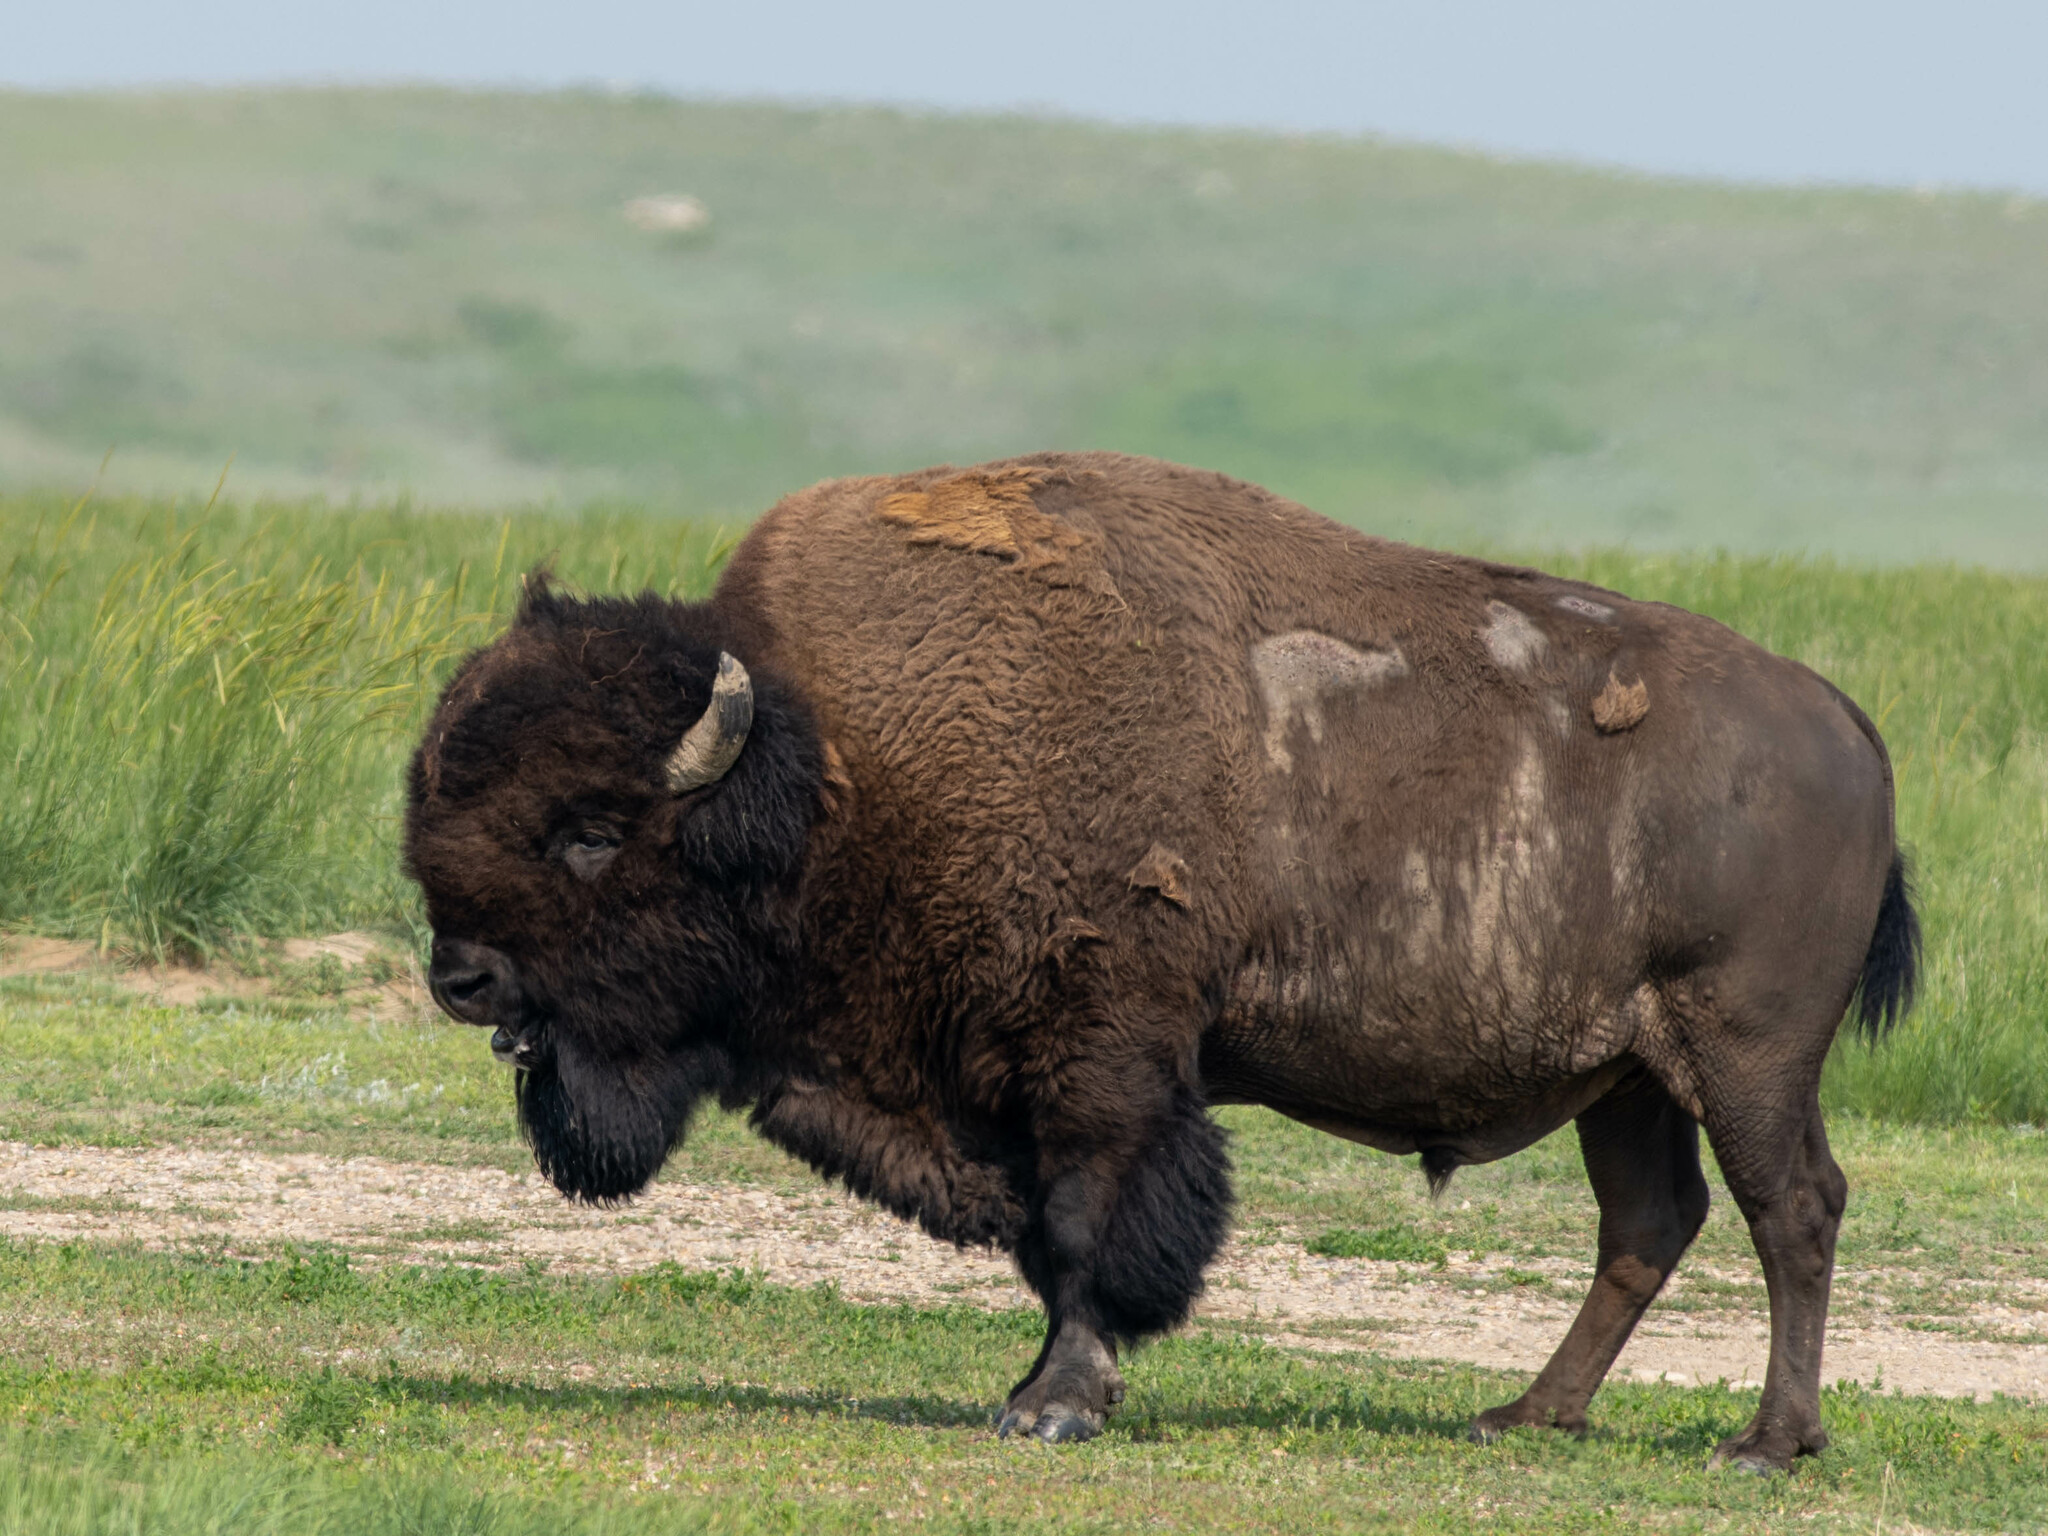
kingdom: Animalia
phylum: Chordata
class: Mammalia
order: Artiodactyla
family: Bovidae
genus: Bison
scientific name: Bison bison
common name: American bison
